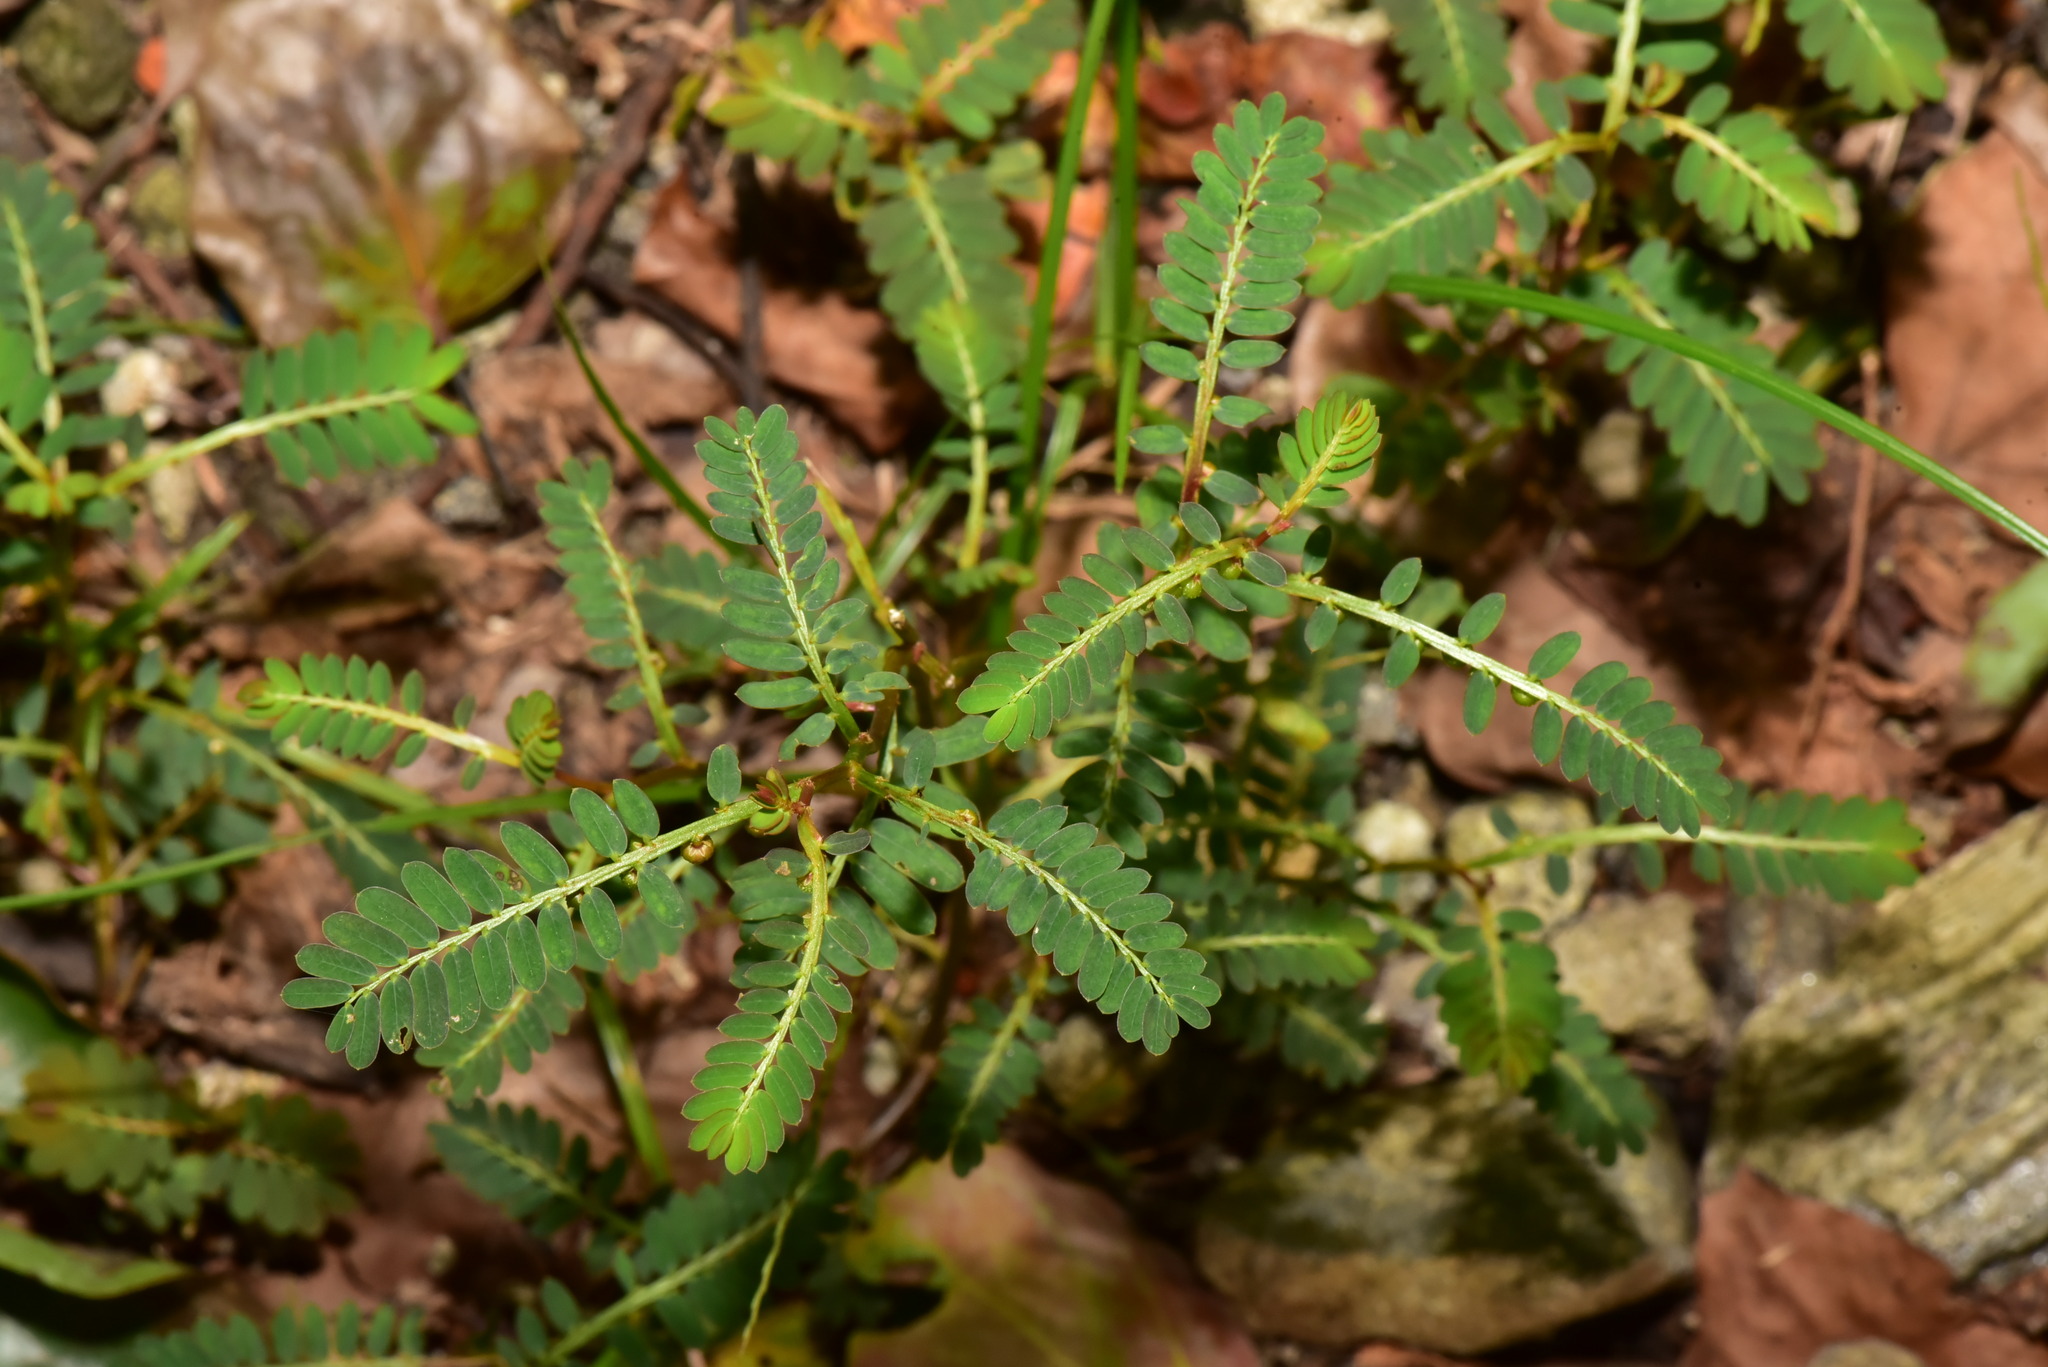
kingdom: Plantae
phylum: Tracheophyta
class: Magnoliopsida
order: Malpighiales
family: Phyllanthaceae
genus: Phyllanthus
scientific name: Phyllanthus urinaria
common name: Chamber bitter
